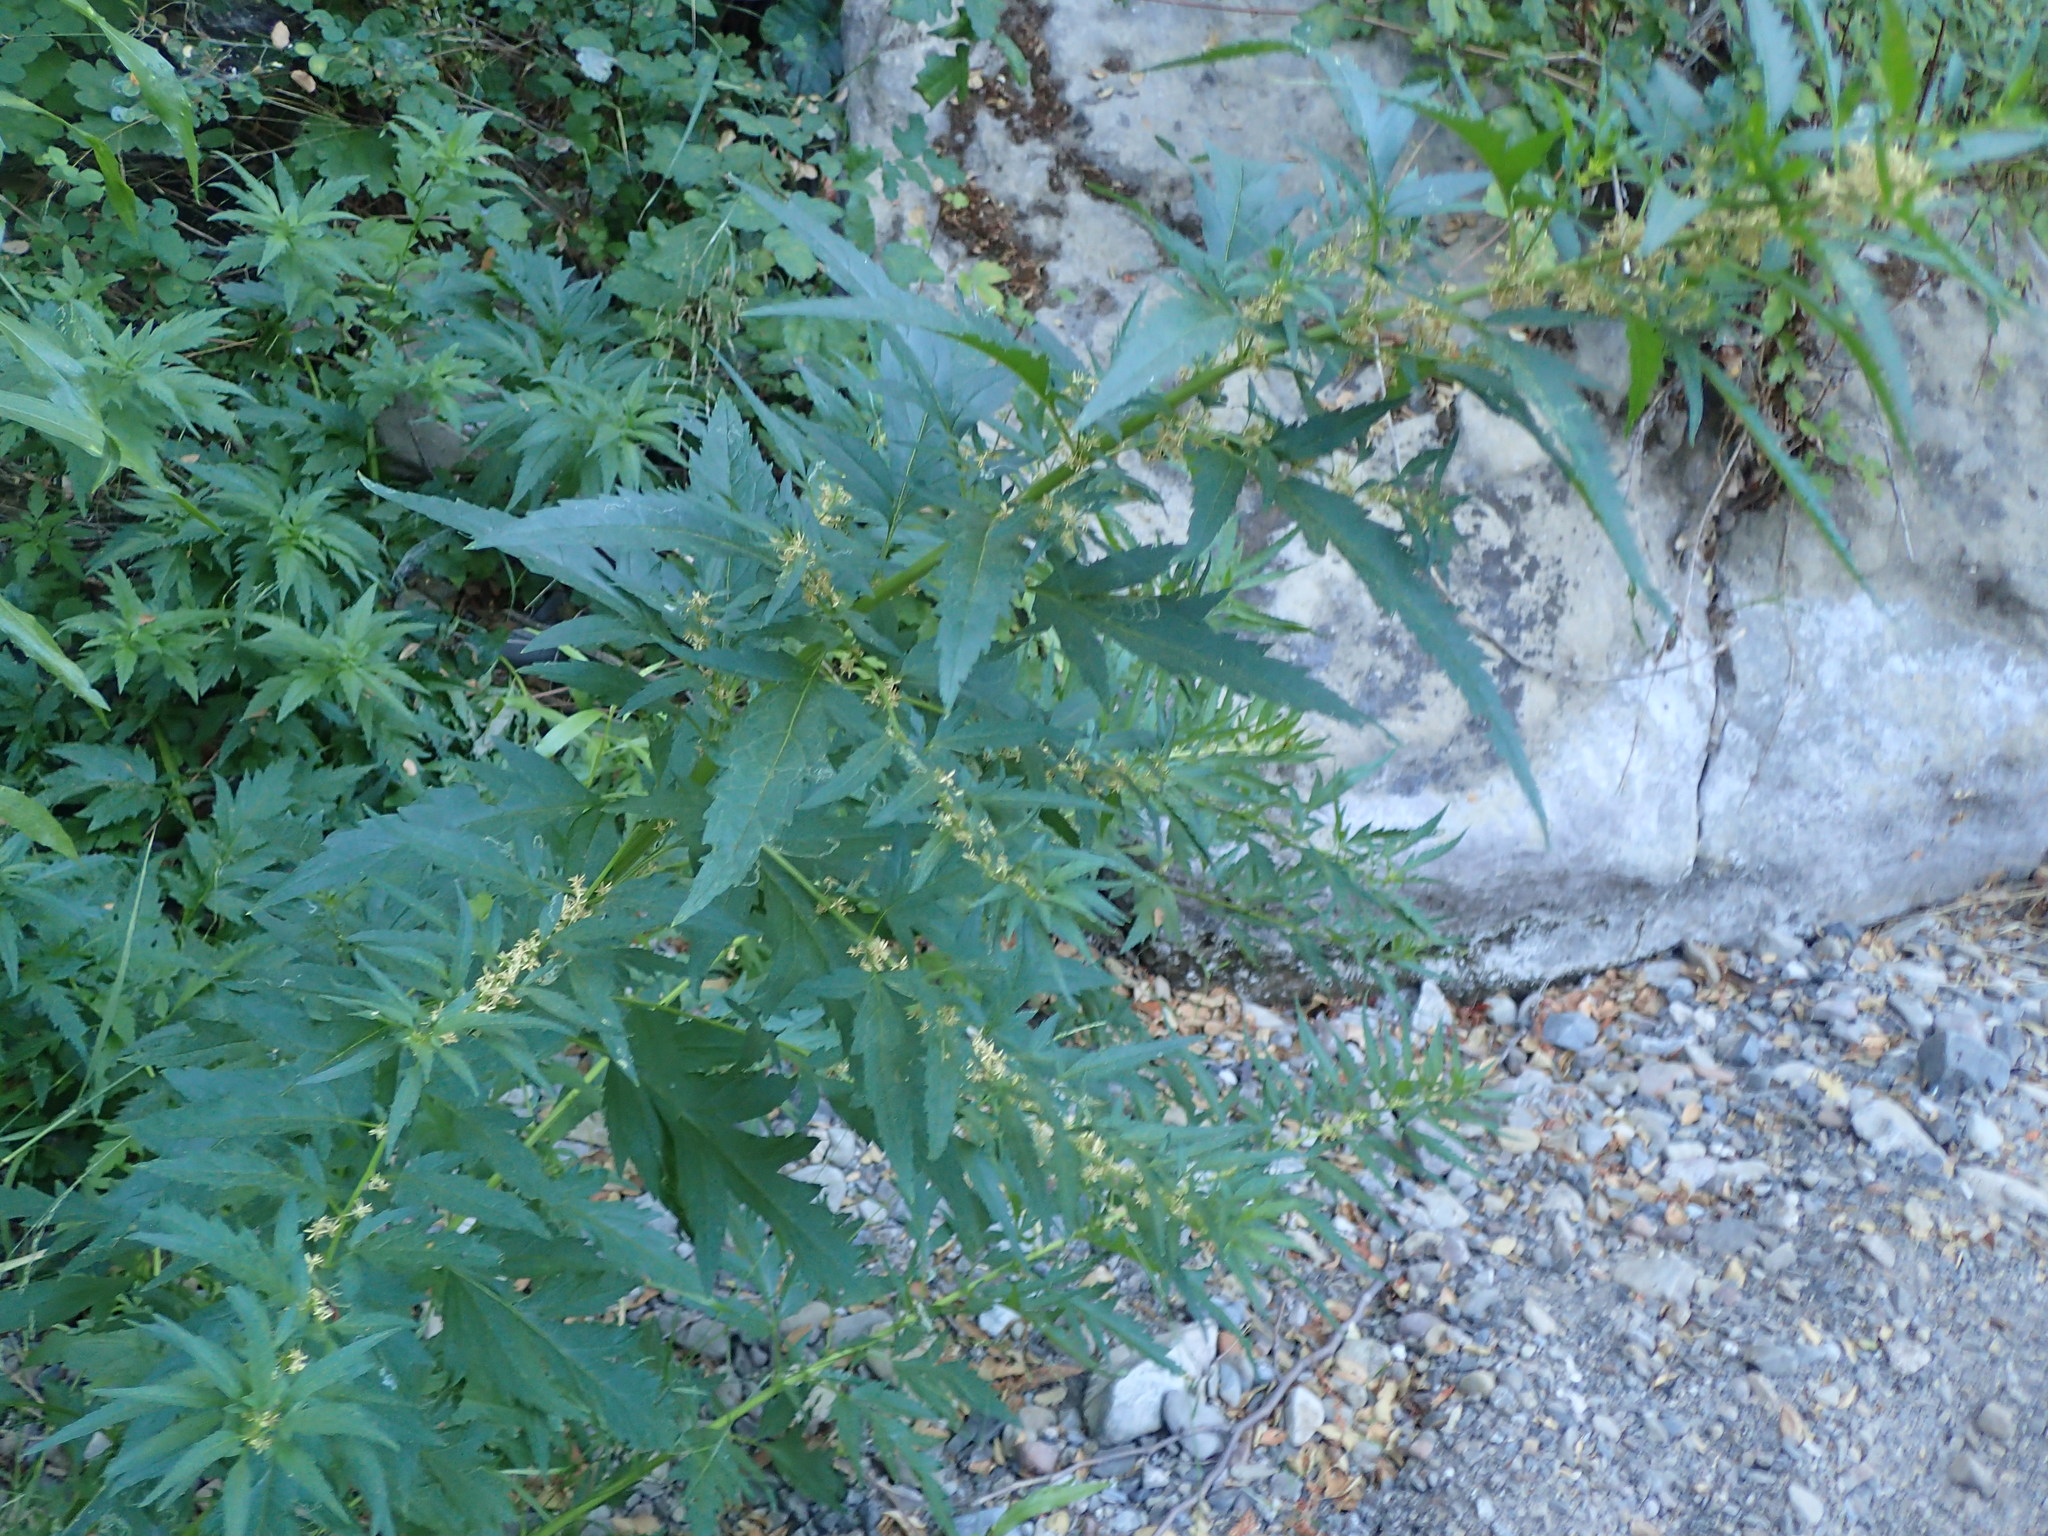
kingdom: Plantae
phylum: Tracheophyta
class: Magnoliopsida
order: Cucurbitales
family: Datiscaceae
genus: Datisca
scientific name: Datisca glomerata
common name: Durango-root
